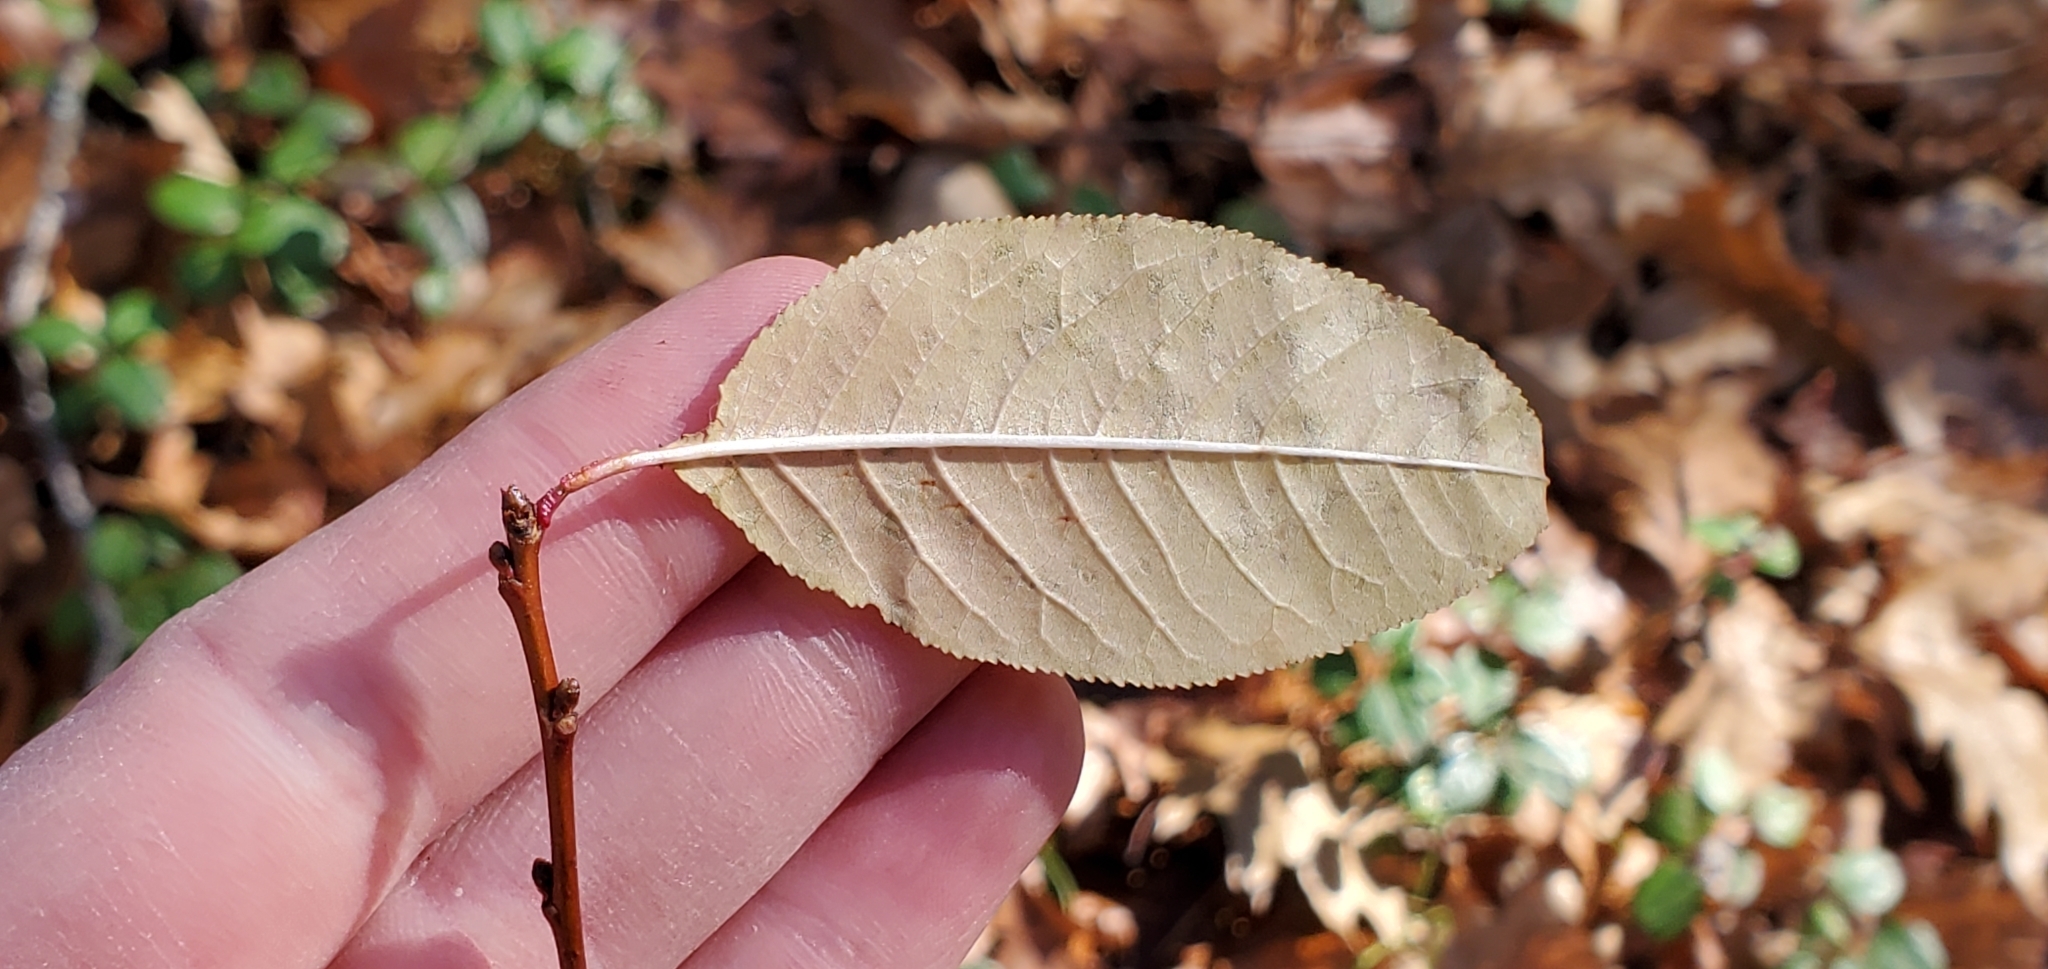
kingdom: Plantae
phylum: Tracheophyta
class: Magnoliopsida
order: Rosales
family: Rosaceae
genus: Prunus
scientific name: Prunus pensylvanica
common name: Pin cherry
